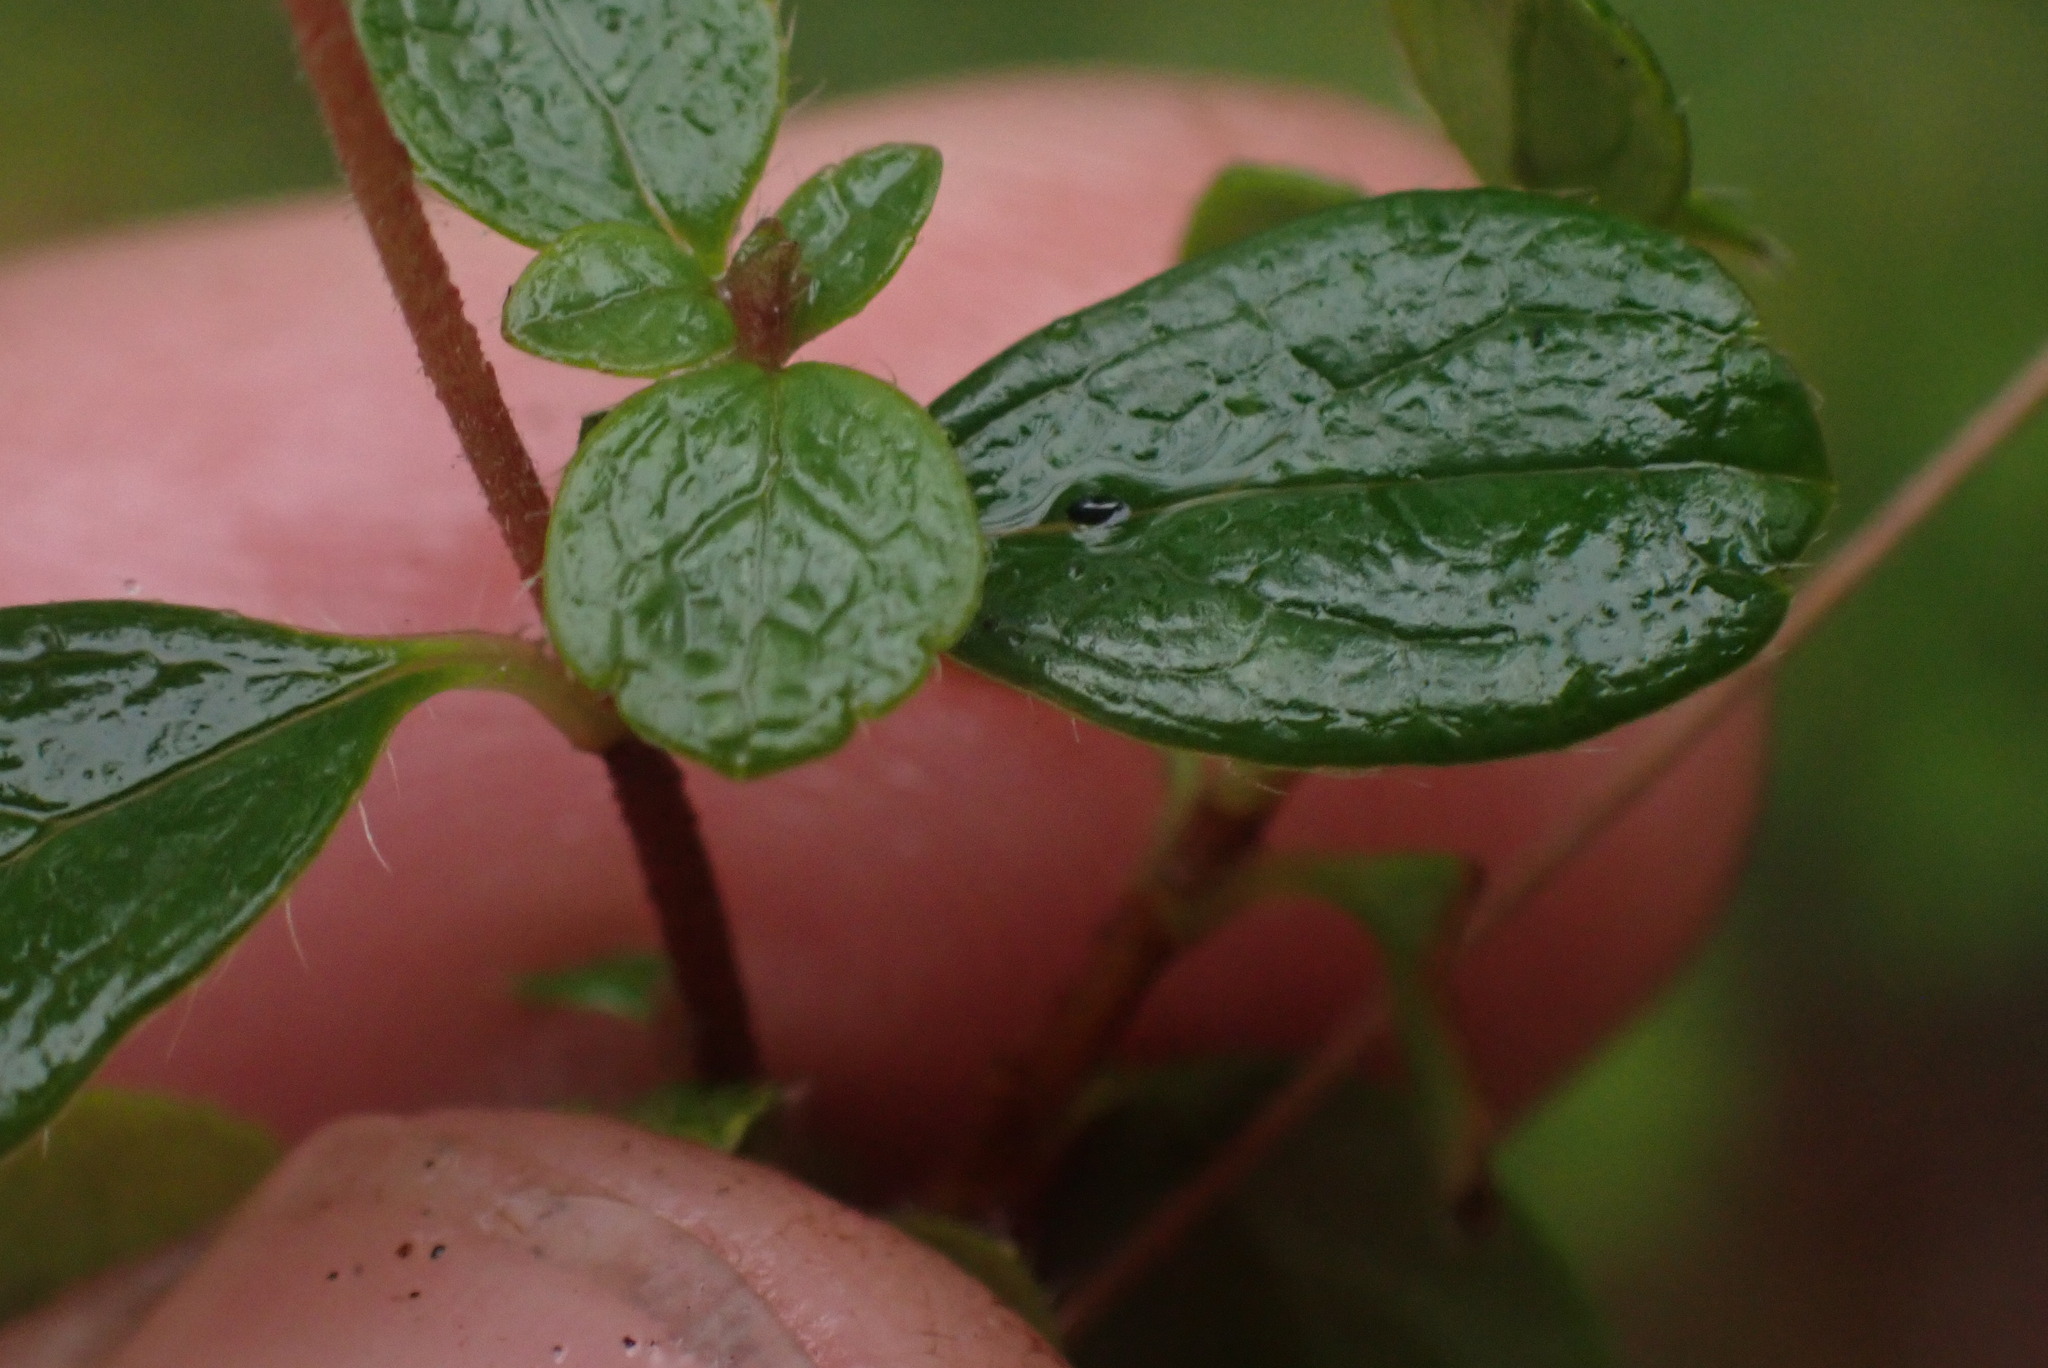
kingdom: Plantae
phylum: Tracheophyta
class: Magnoliopsida
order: Dipsacales
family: Caprifoliaceae
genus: Linnaea
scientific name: Linnaea borealis
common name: Twinflower
